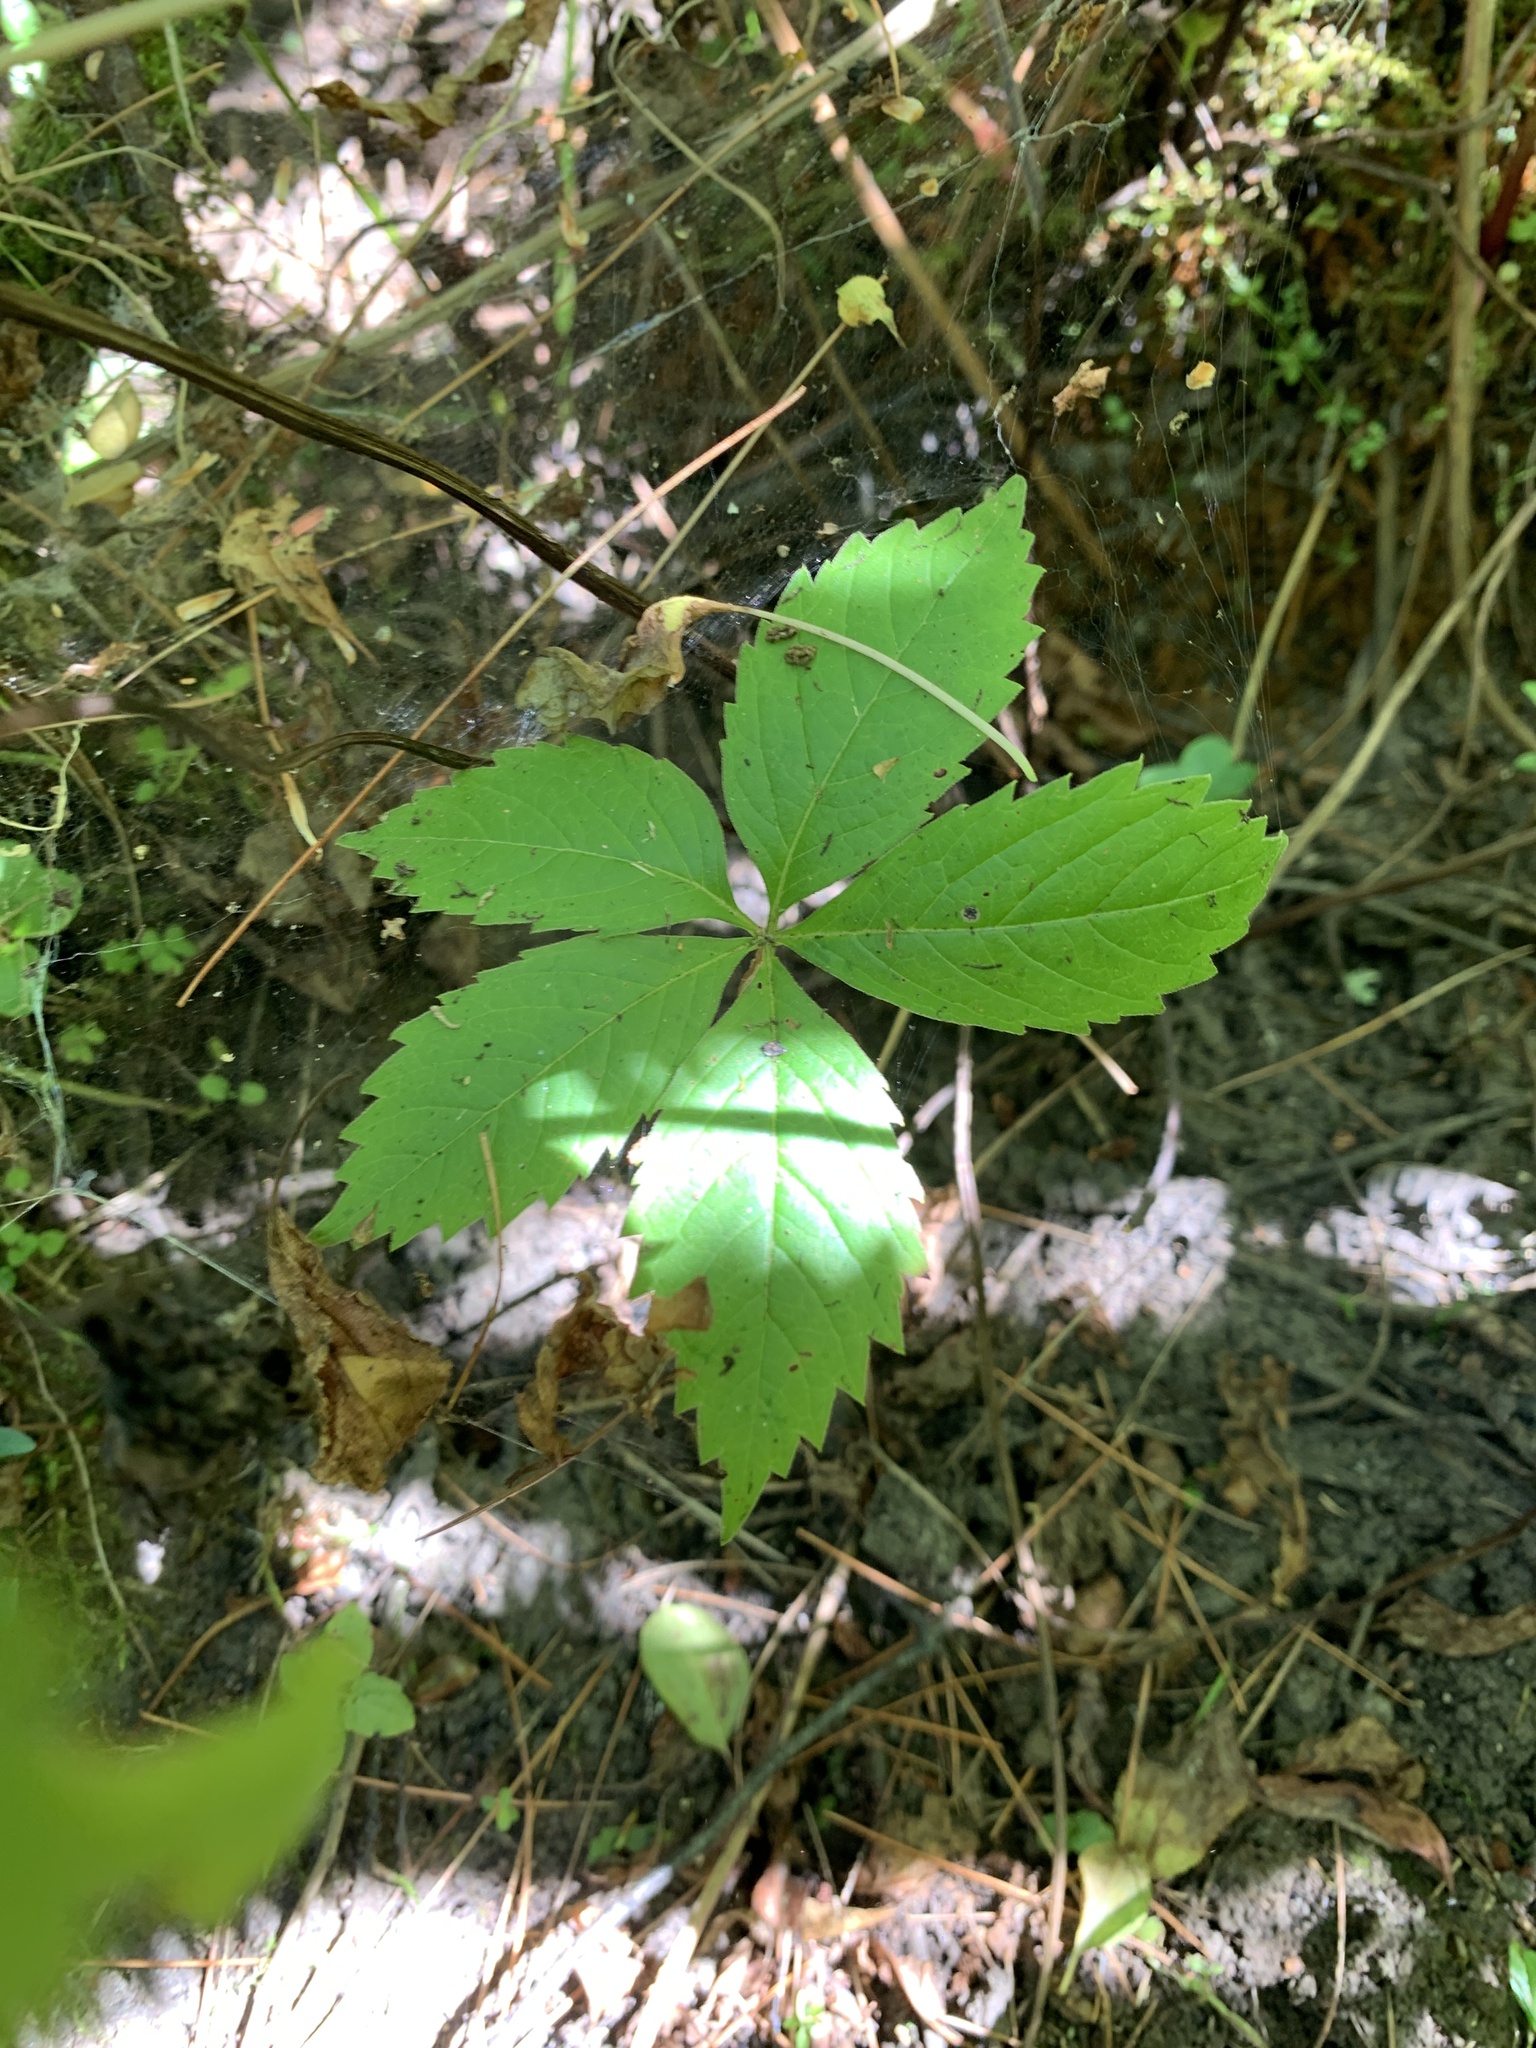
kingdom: Plantae
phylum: Tracheophyta
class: Magnoliopsida
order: Vitales
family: Vitaceae
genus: Parthenocissus
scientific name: Parthenocissus quinquefolia
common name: Virginia-creeper
